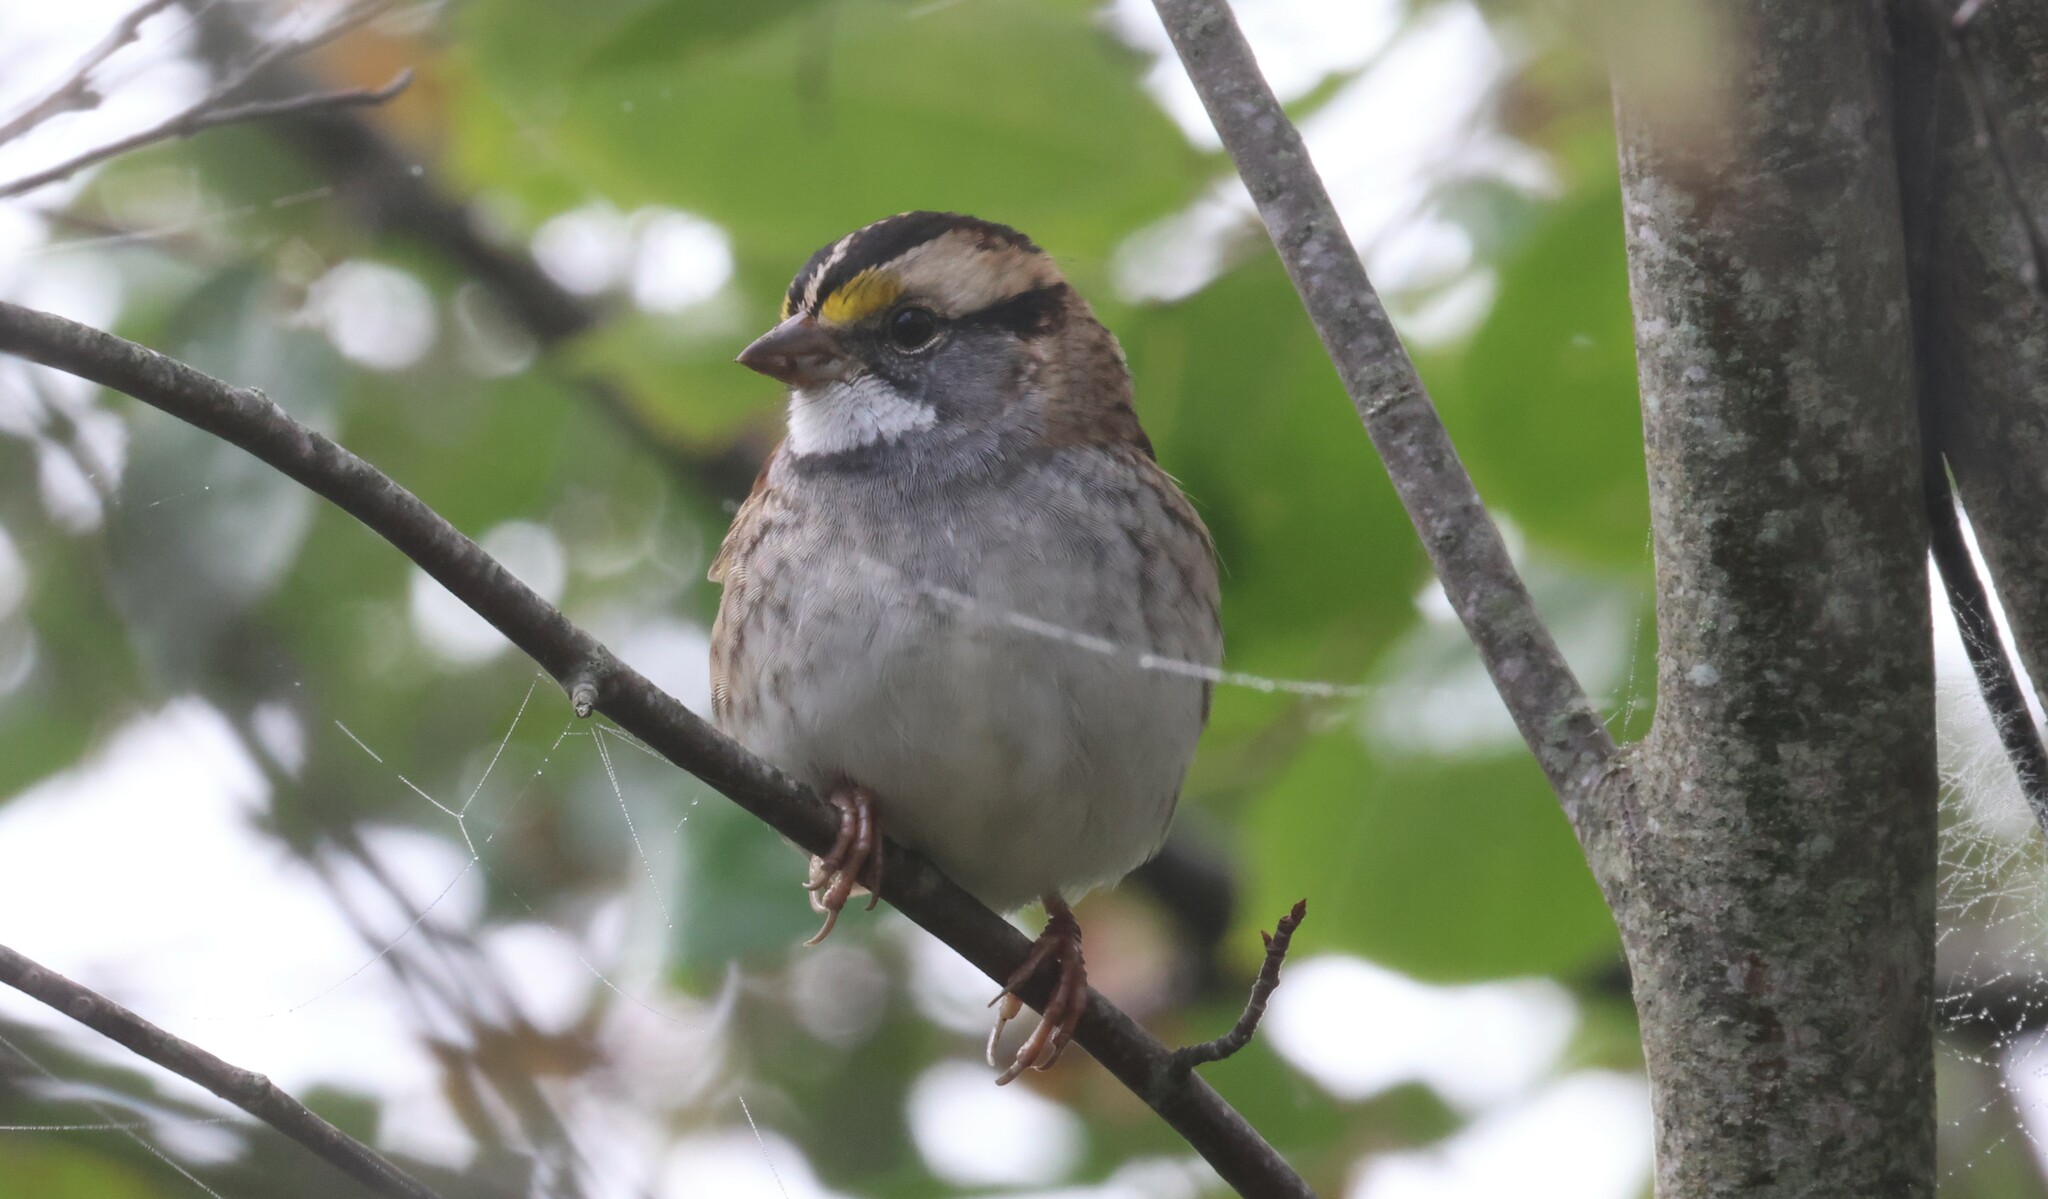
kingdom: Animalia
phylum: Chordata
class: Aves
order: Passeriformes
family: Passerellidae
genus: Zonotrichia
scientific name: Zonotrichia albicollis
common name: White-throated sparrow
